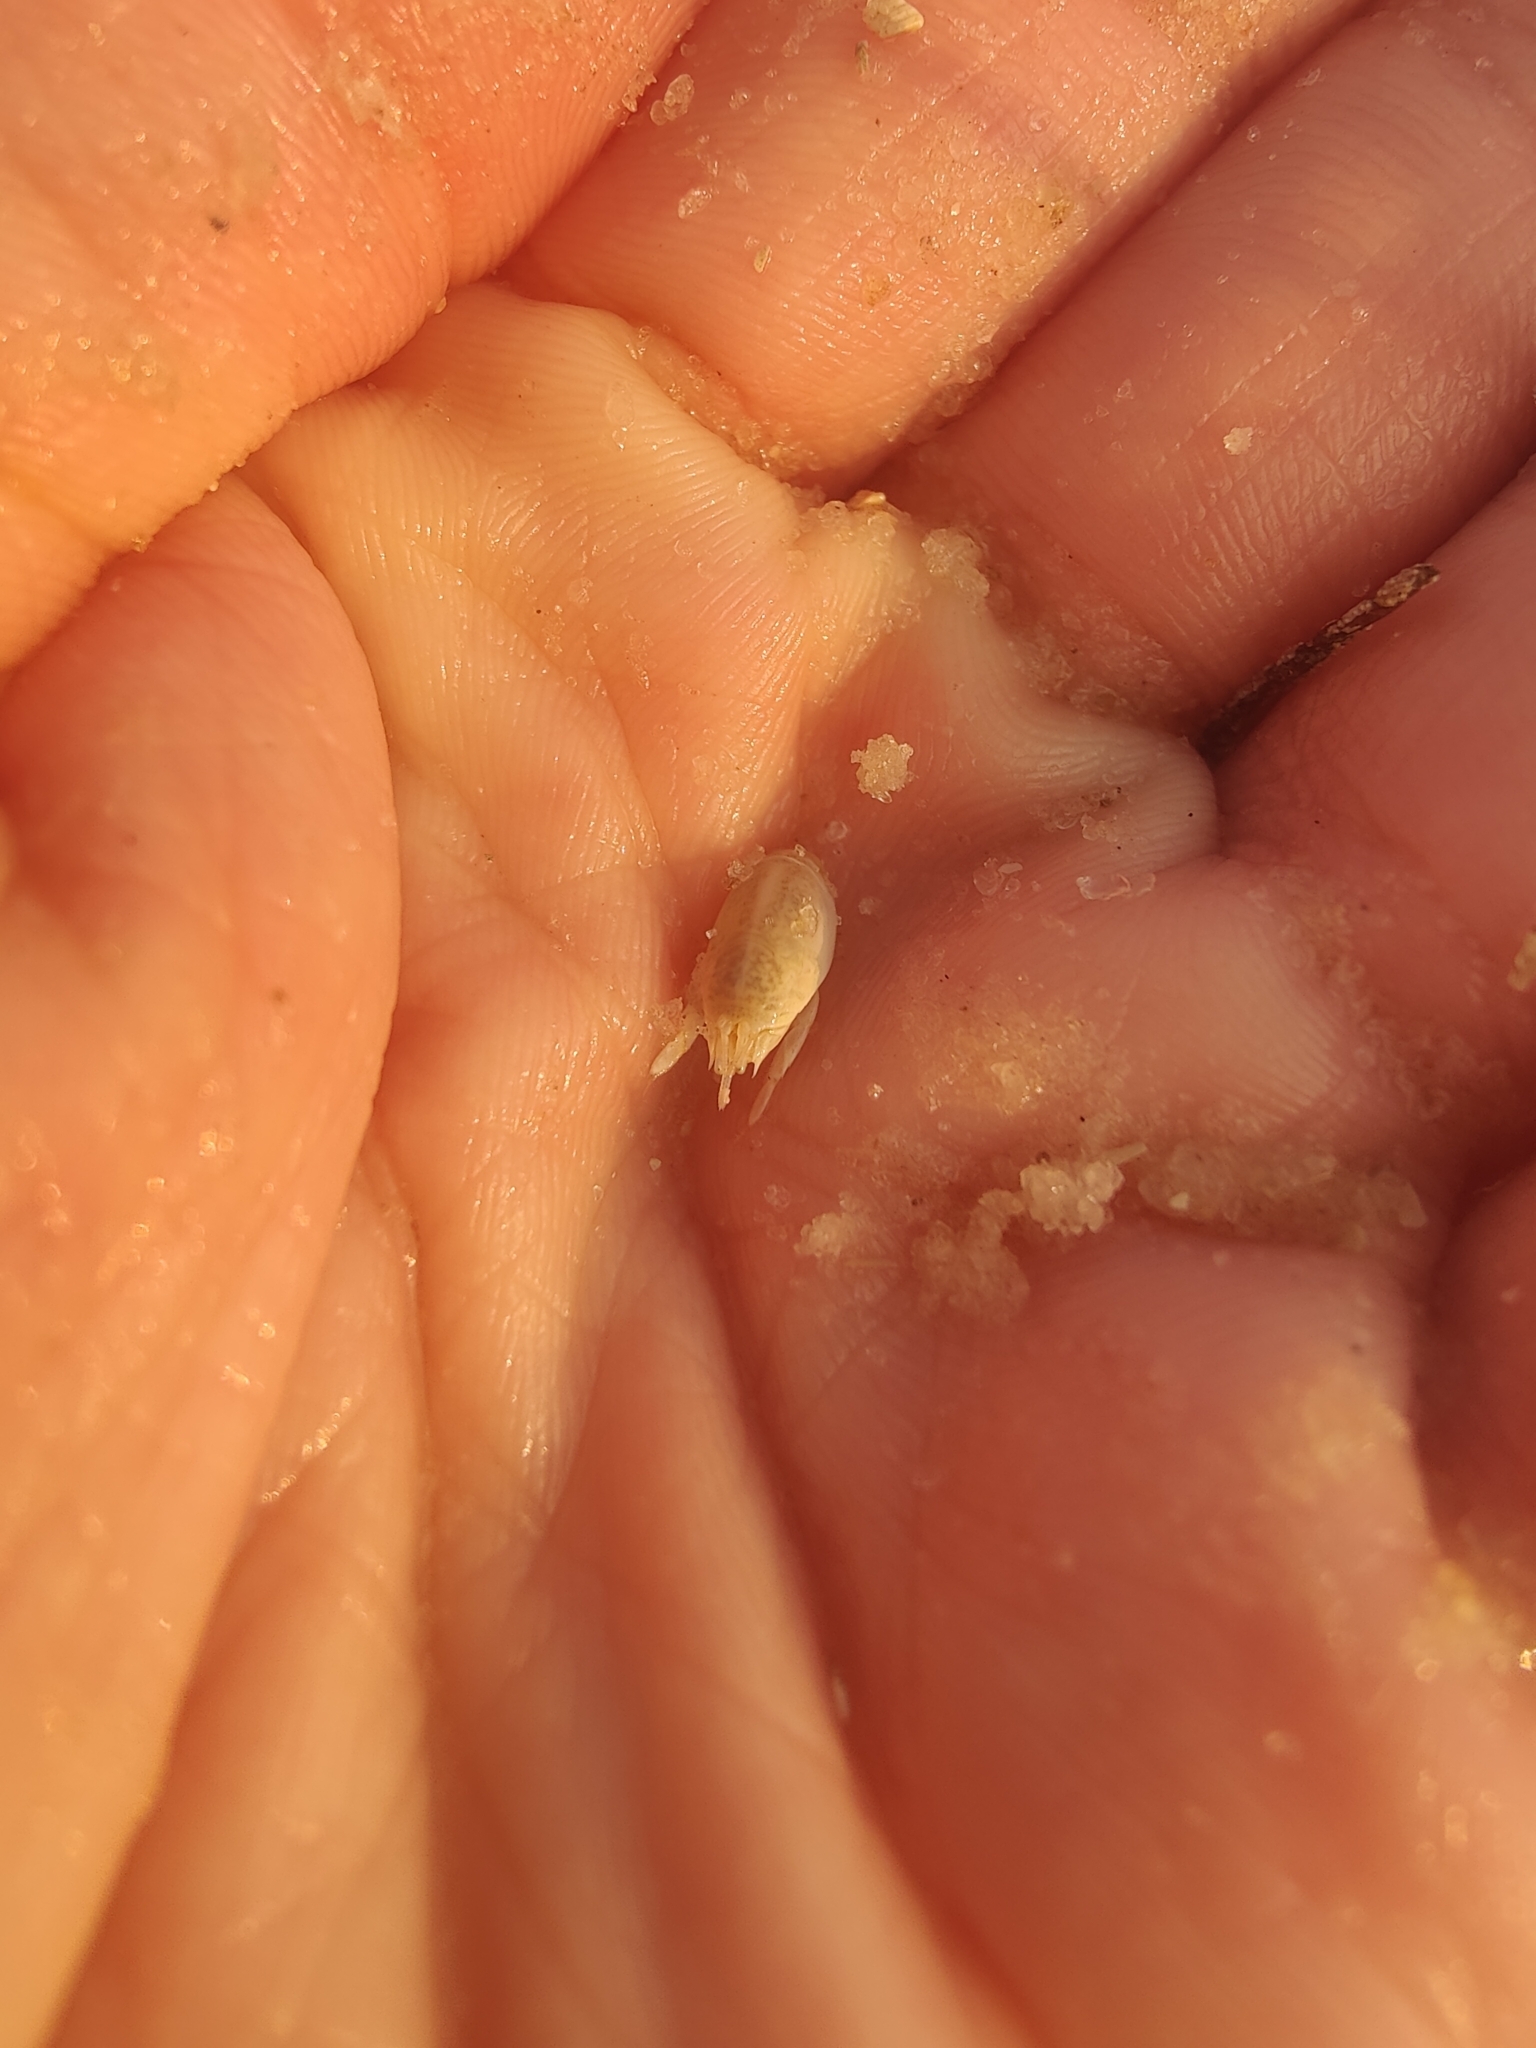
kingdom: Animalia
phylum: Arthropoda
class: Malacostraca
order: Decapoda
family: Hippidae
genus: Emerita
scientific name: Emerita talpoida
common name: Atlantic sand crab
